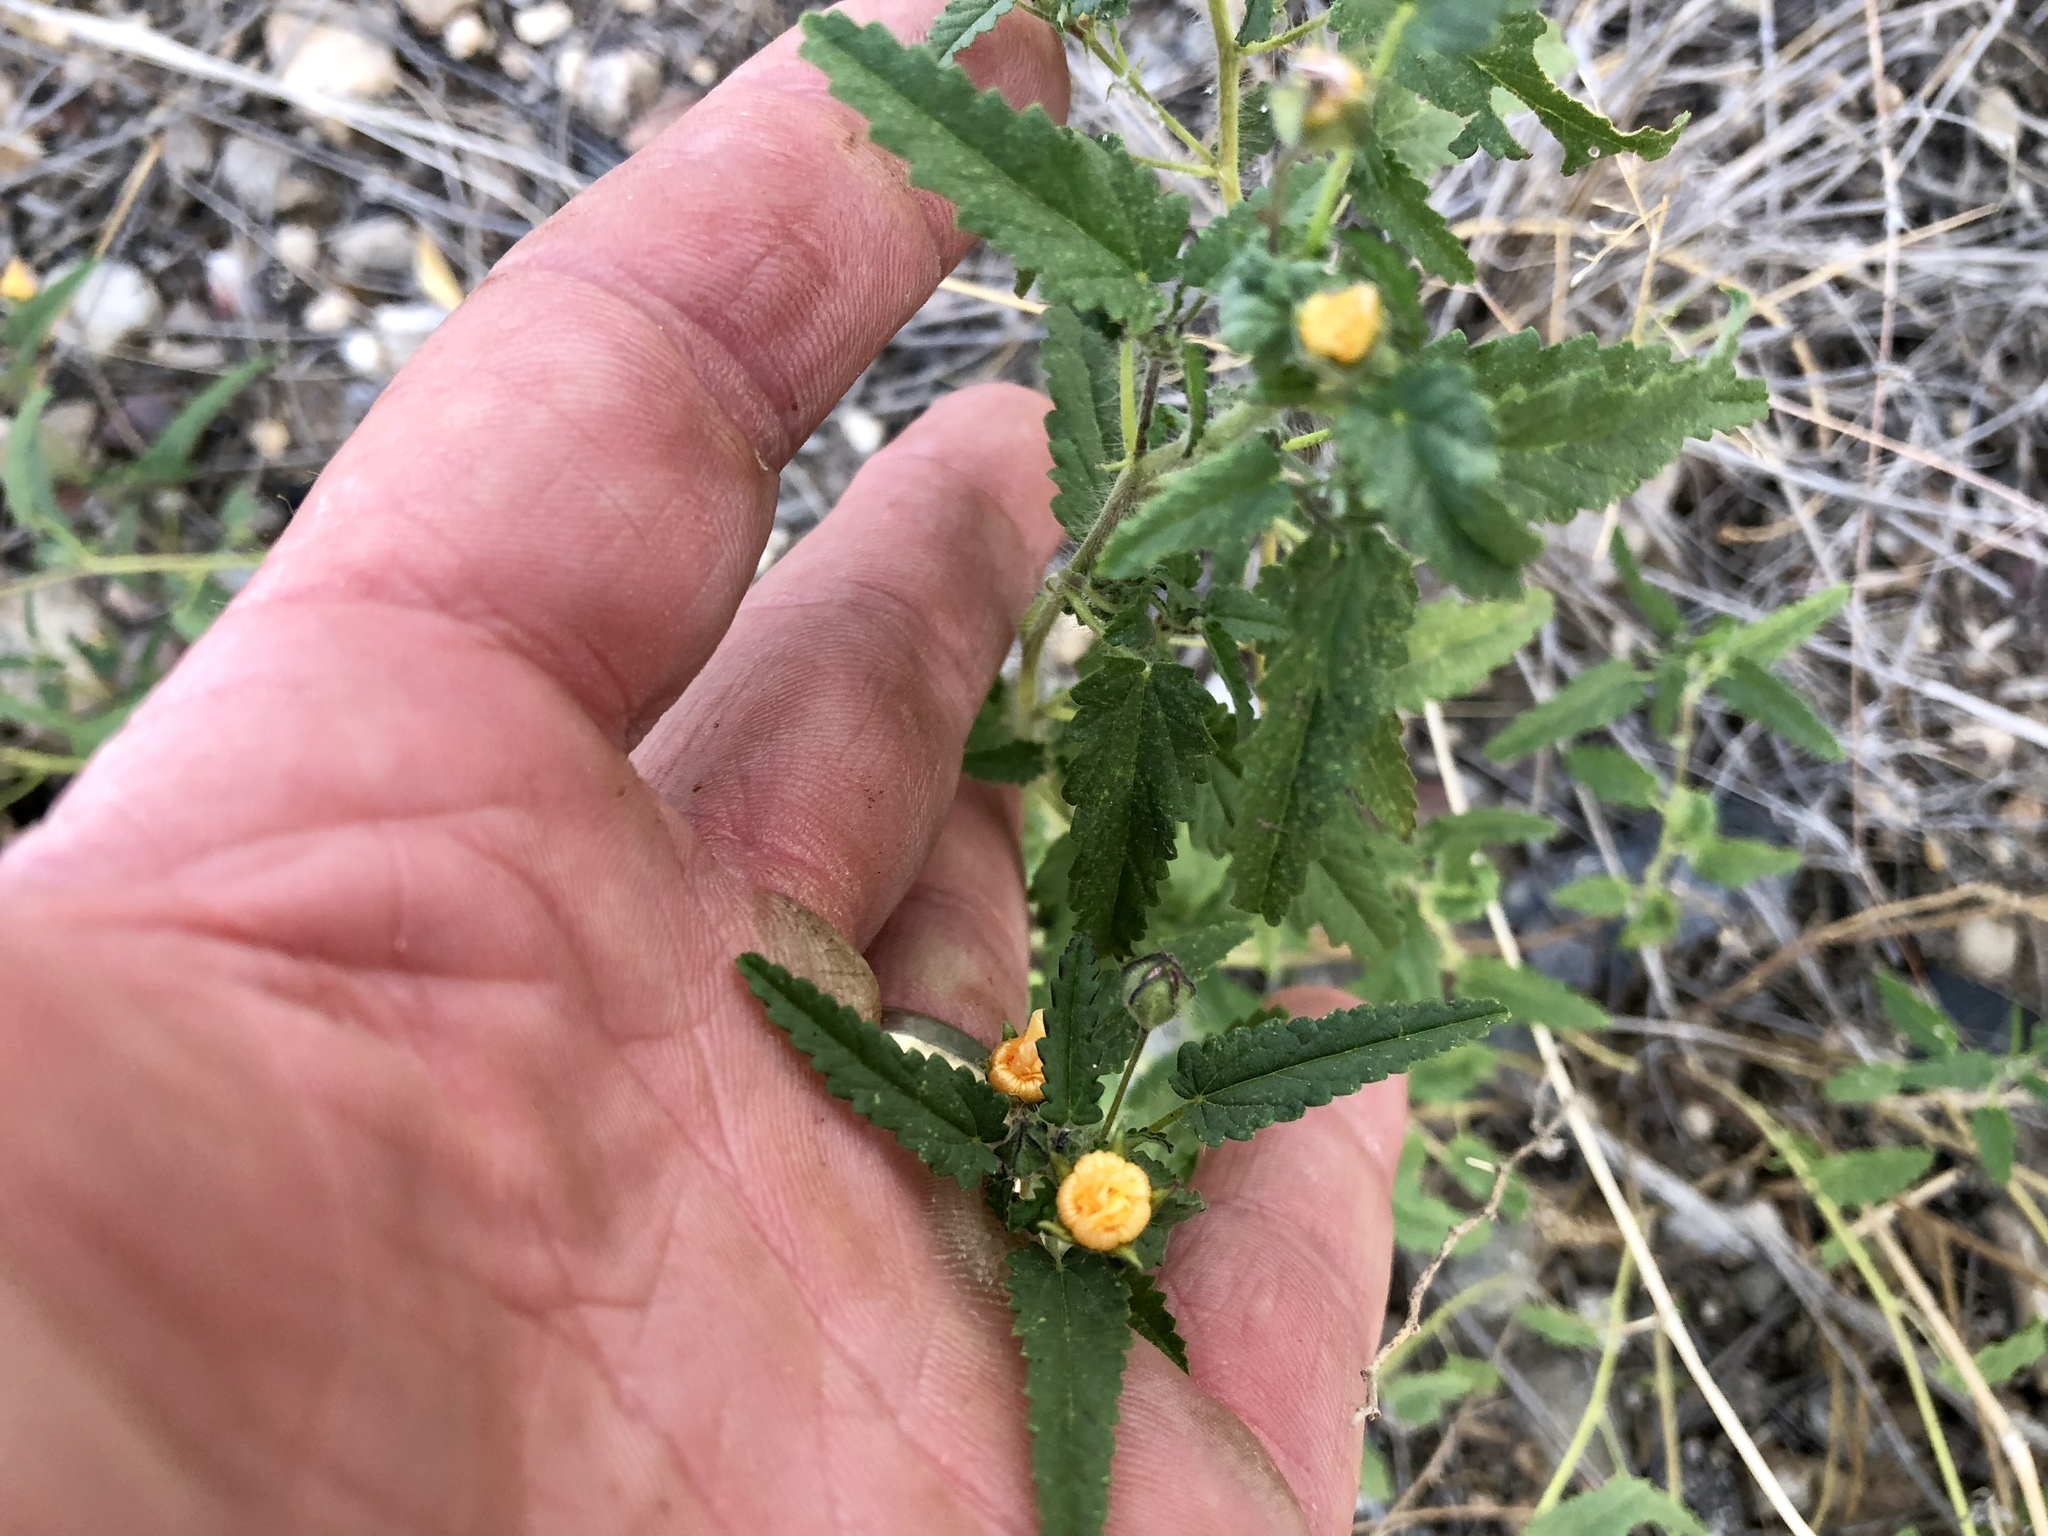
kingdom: Plantae
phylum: Tracheophyta
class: Magnoliopsida
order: Malvales
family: Malvaceae
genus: Sida
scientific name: Sida abutilifolia
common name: Spreading fanpetals
